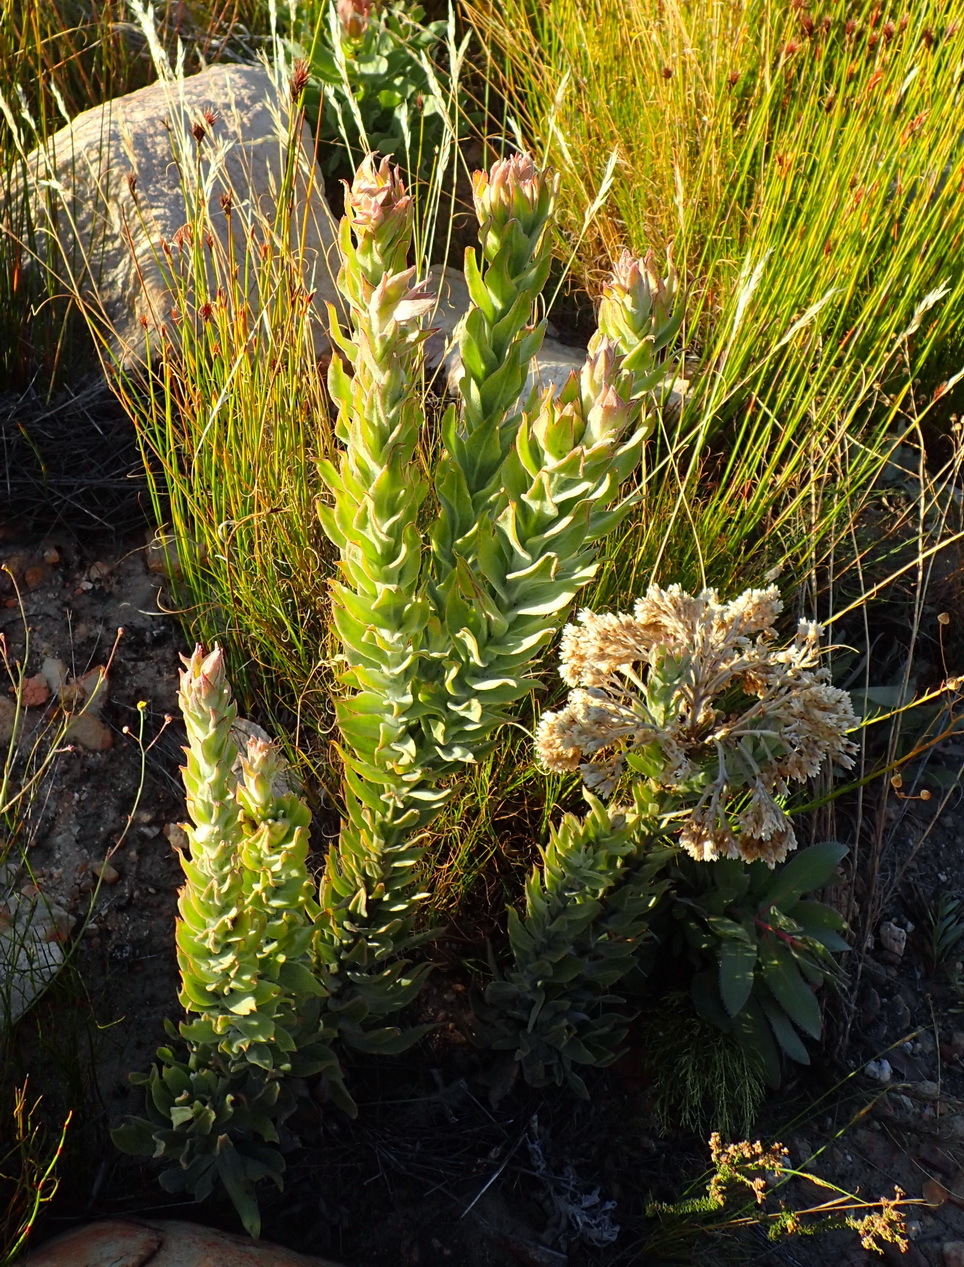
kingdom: Plantae
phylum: Tracheophyta
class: Magnoliopsida
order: Asterales
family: Asteraceae
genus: Syncarpha
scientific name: Syncarpha milleflora
